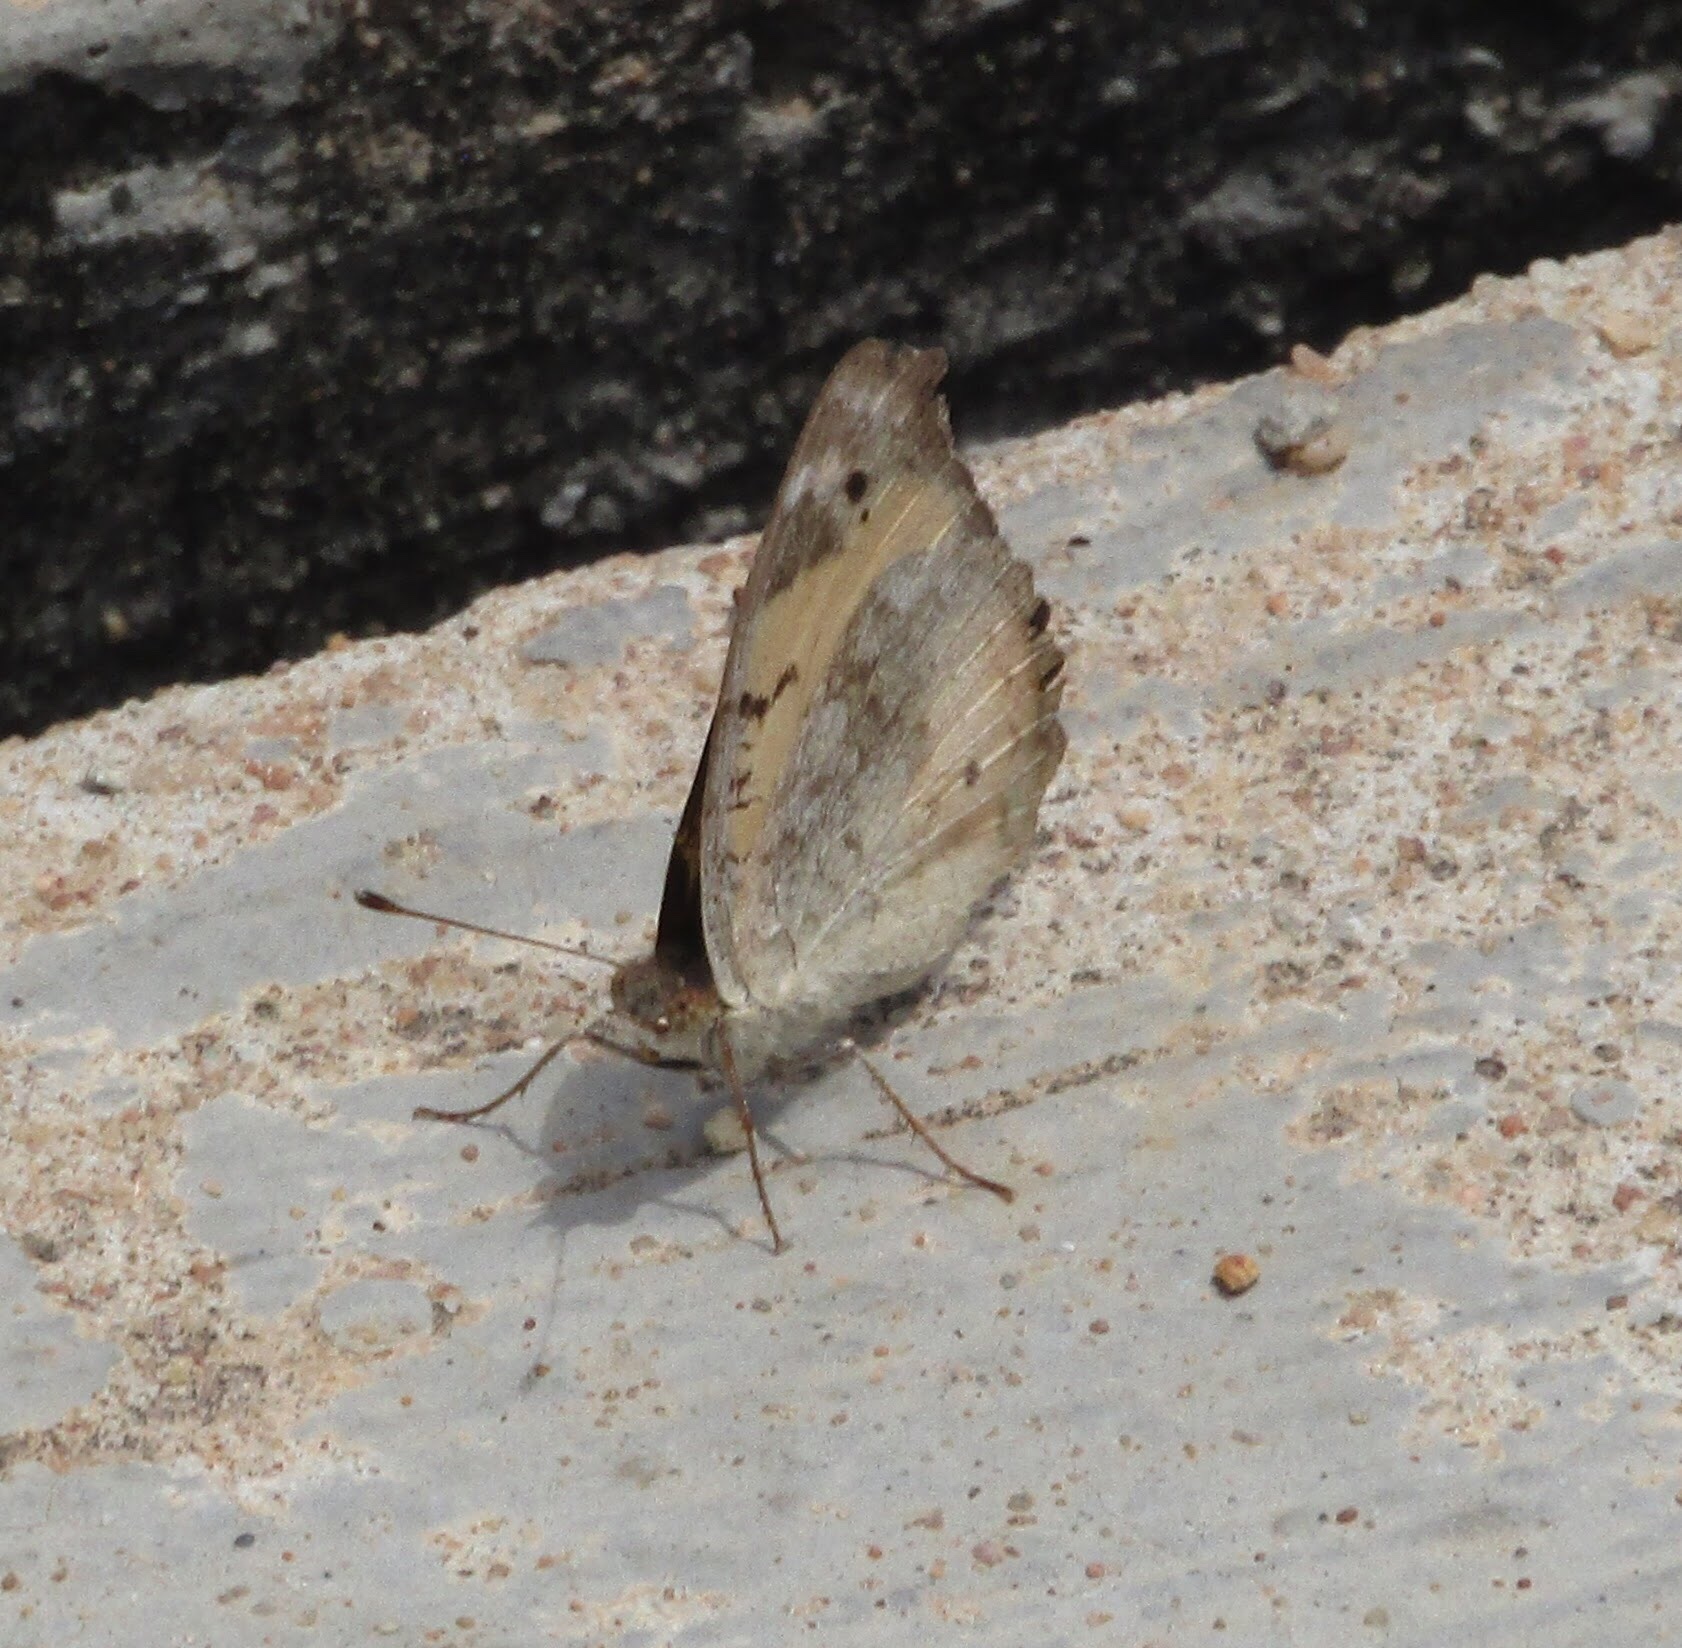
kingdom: Animalia
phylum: Arthropoda
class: Insecta
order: Lepidoptera
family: Nymphalidae
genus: Junonia
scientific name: Junonia hierta
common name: Yellow pansy
